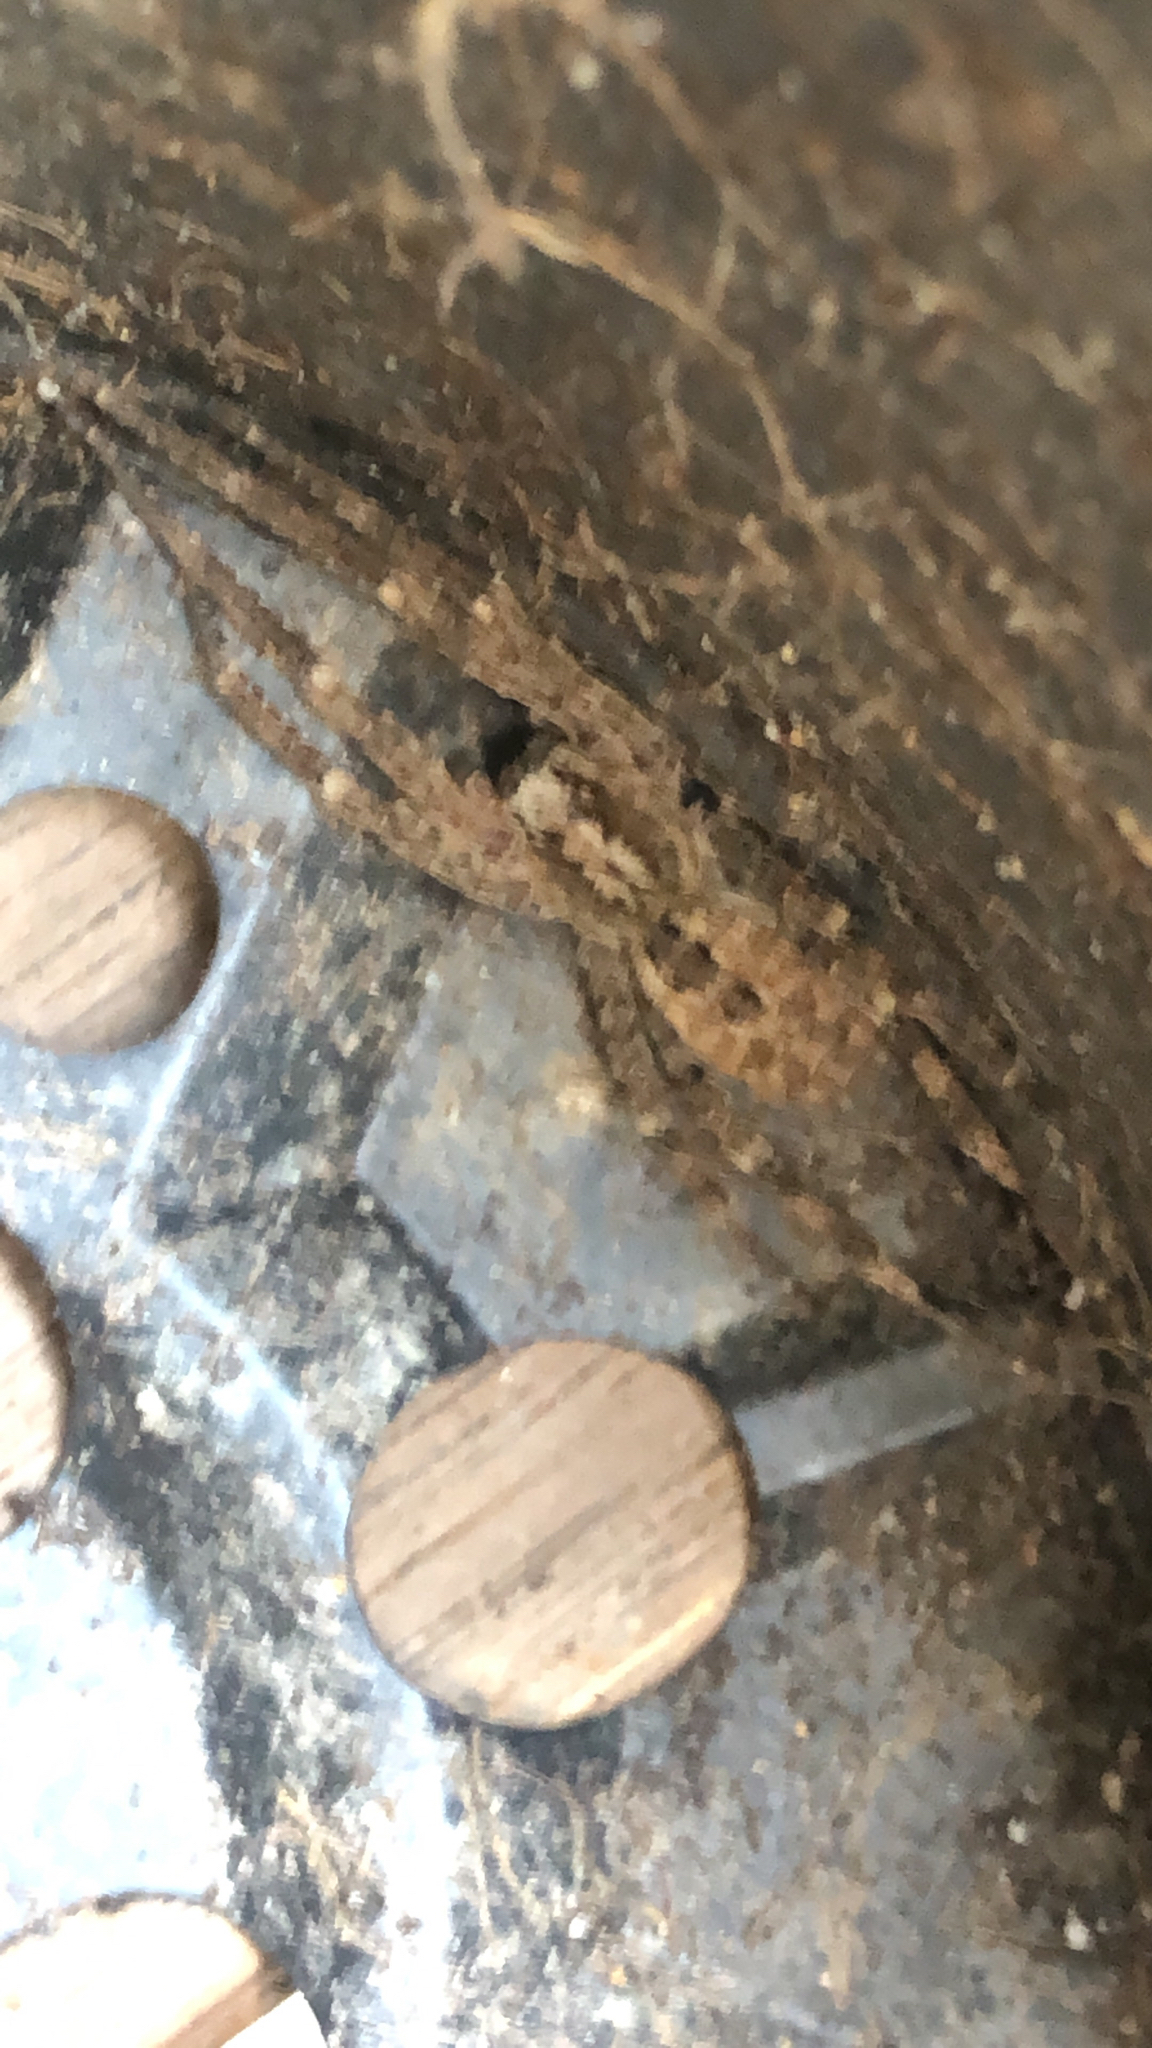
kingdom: Animalia
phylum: Arthropoda
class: Arachnida
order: Araneae
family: Zoropsidae
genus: Zoropsis
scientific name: Zoropsis spinimana
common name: Zoropsid spider
